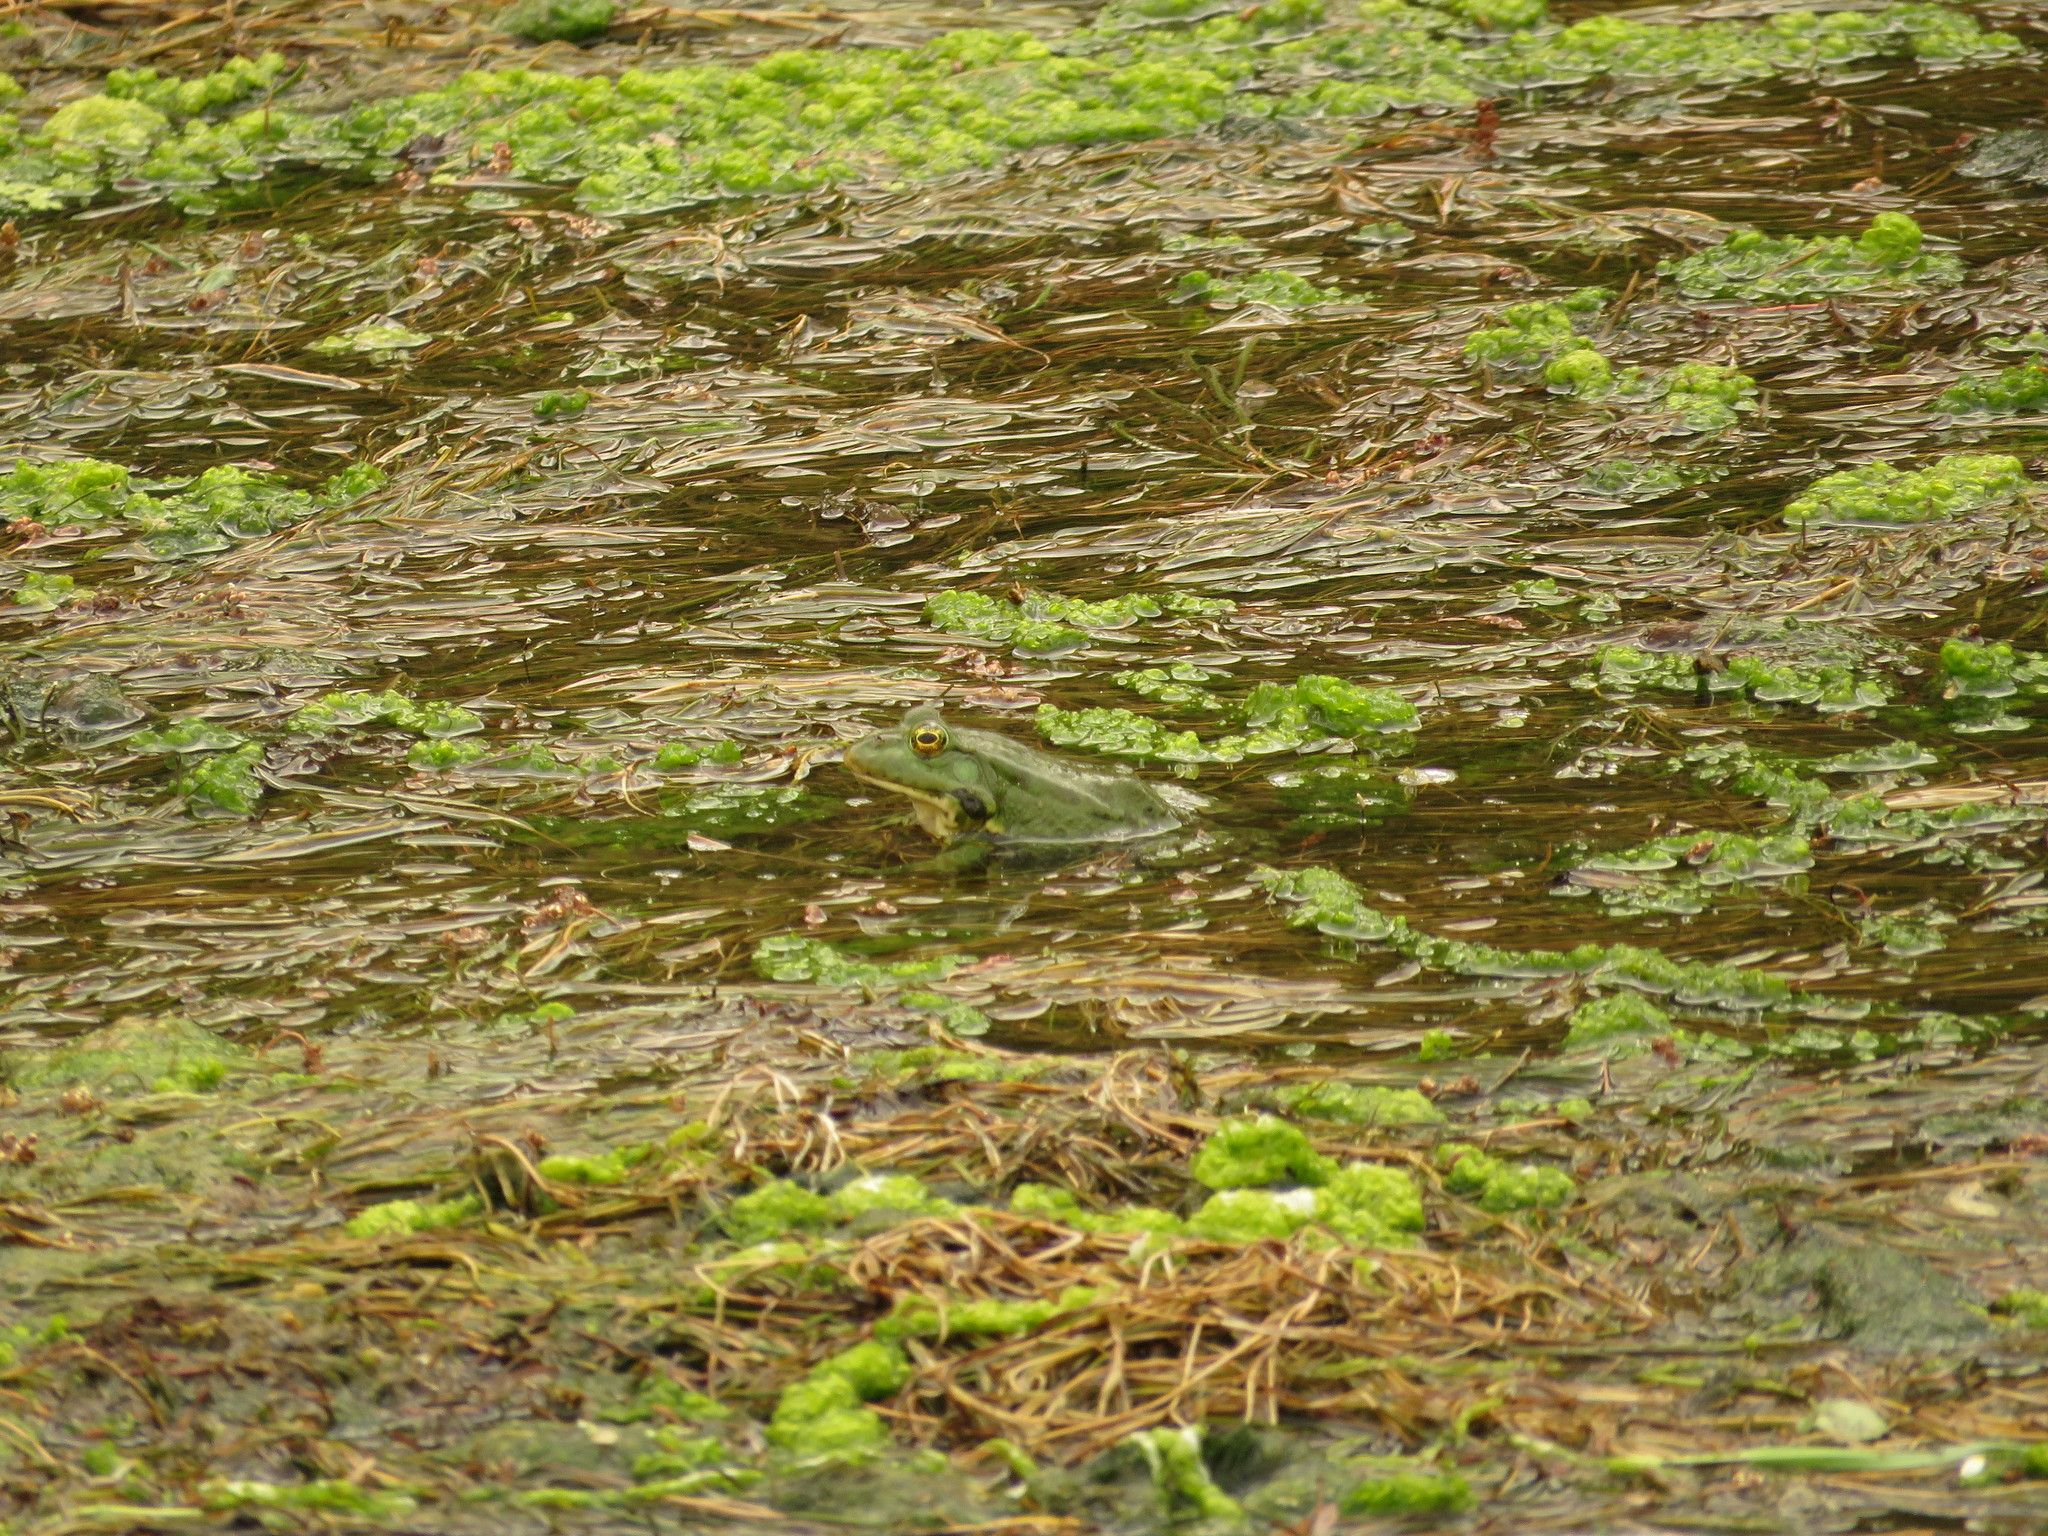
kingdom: Animalia
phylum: Chordata
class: Amphibia
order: Anura
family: Ranidae
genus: Pelophylax
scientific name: Pelophylax ridibundus
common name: Marsh frog
